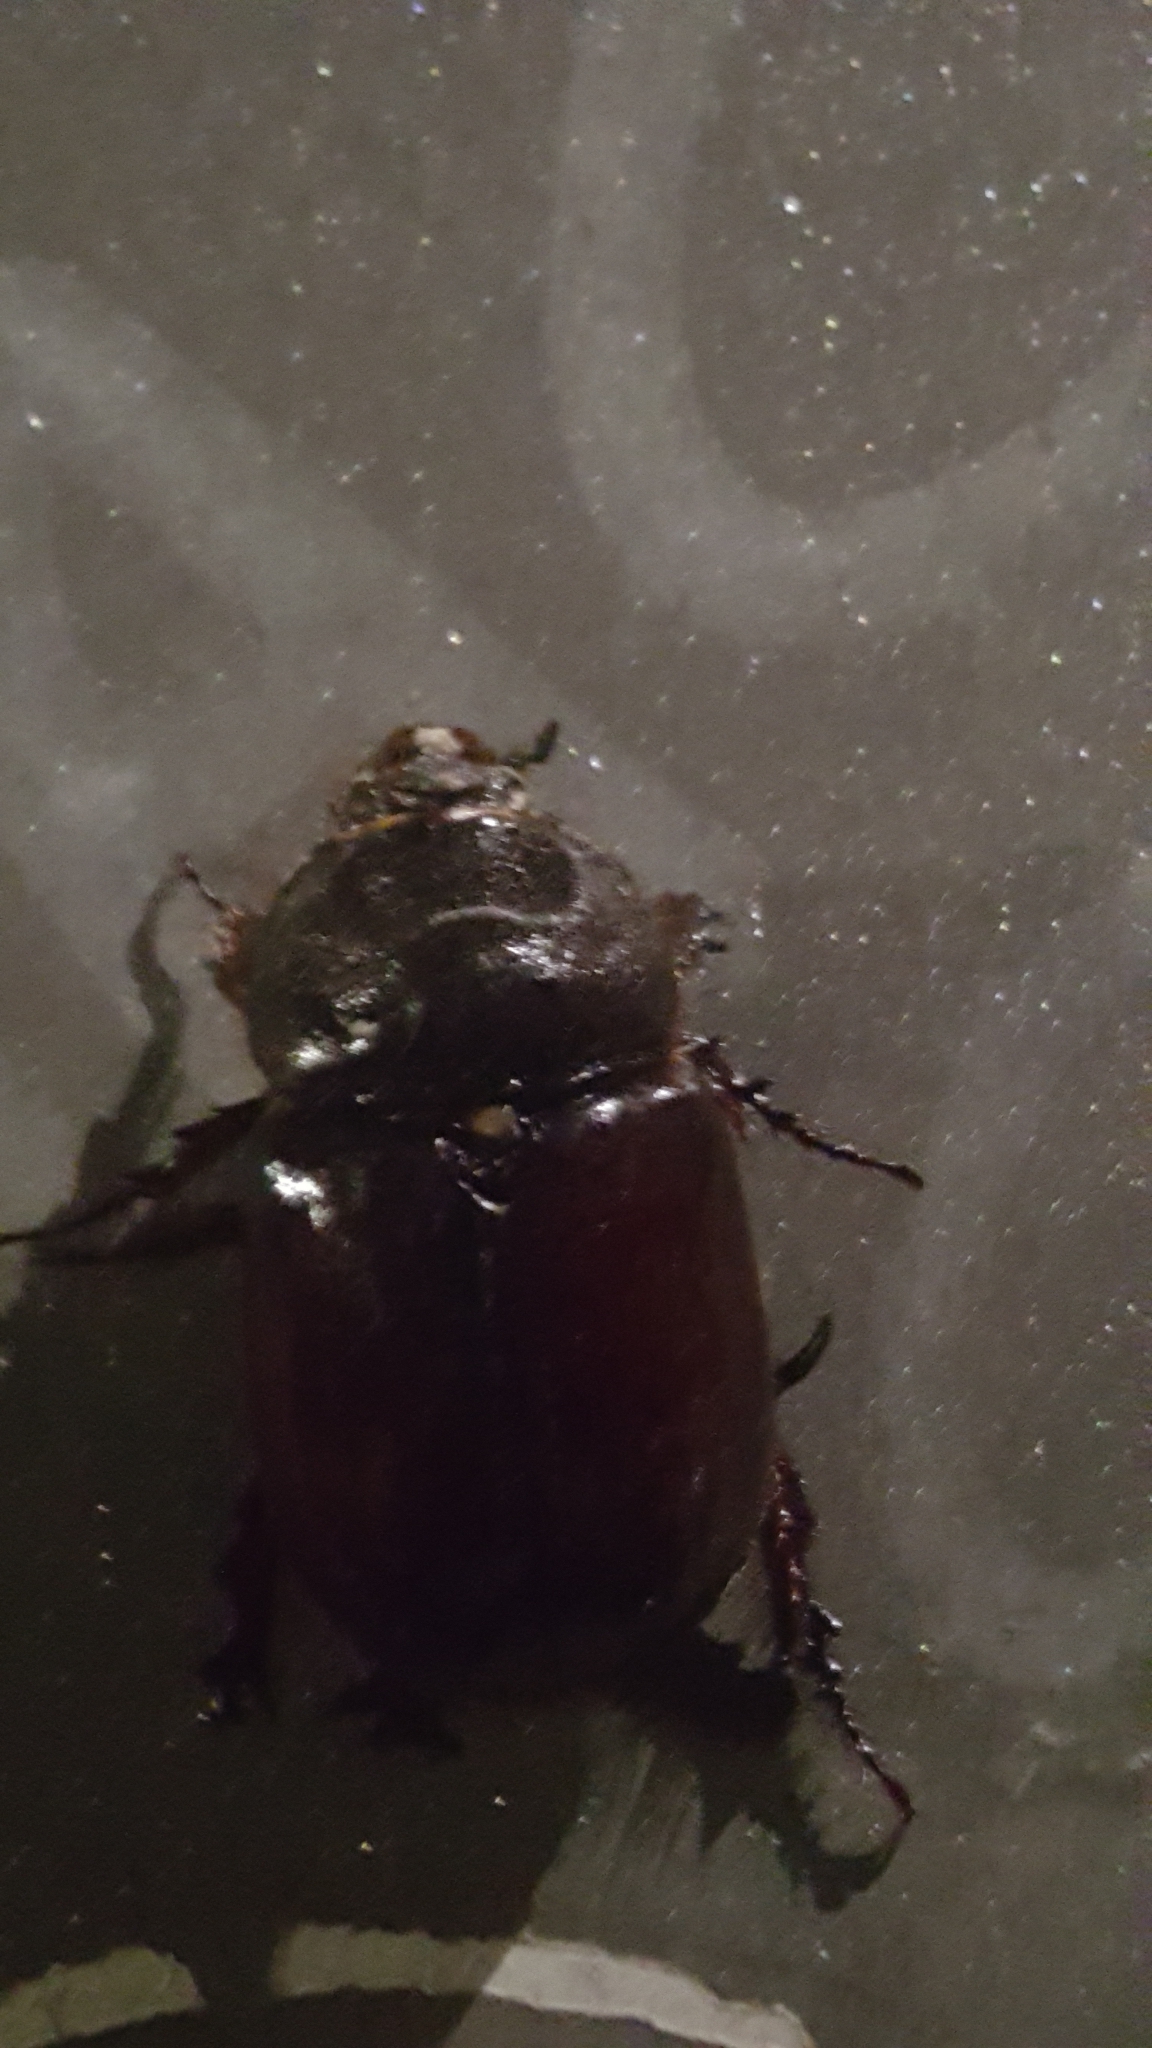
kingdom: Animalia
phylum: Arthropoda
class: Insecta
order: Coleoptera
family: Scarabaeidae
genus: Oryctes
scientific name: Oryctes nasicornis
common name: European rhinoceros beetle
